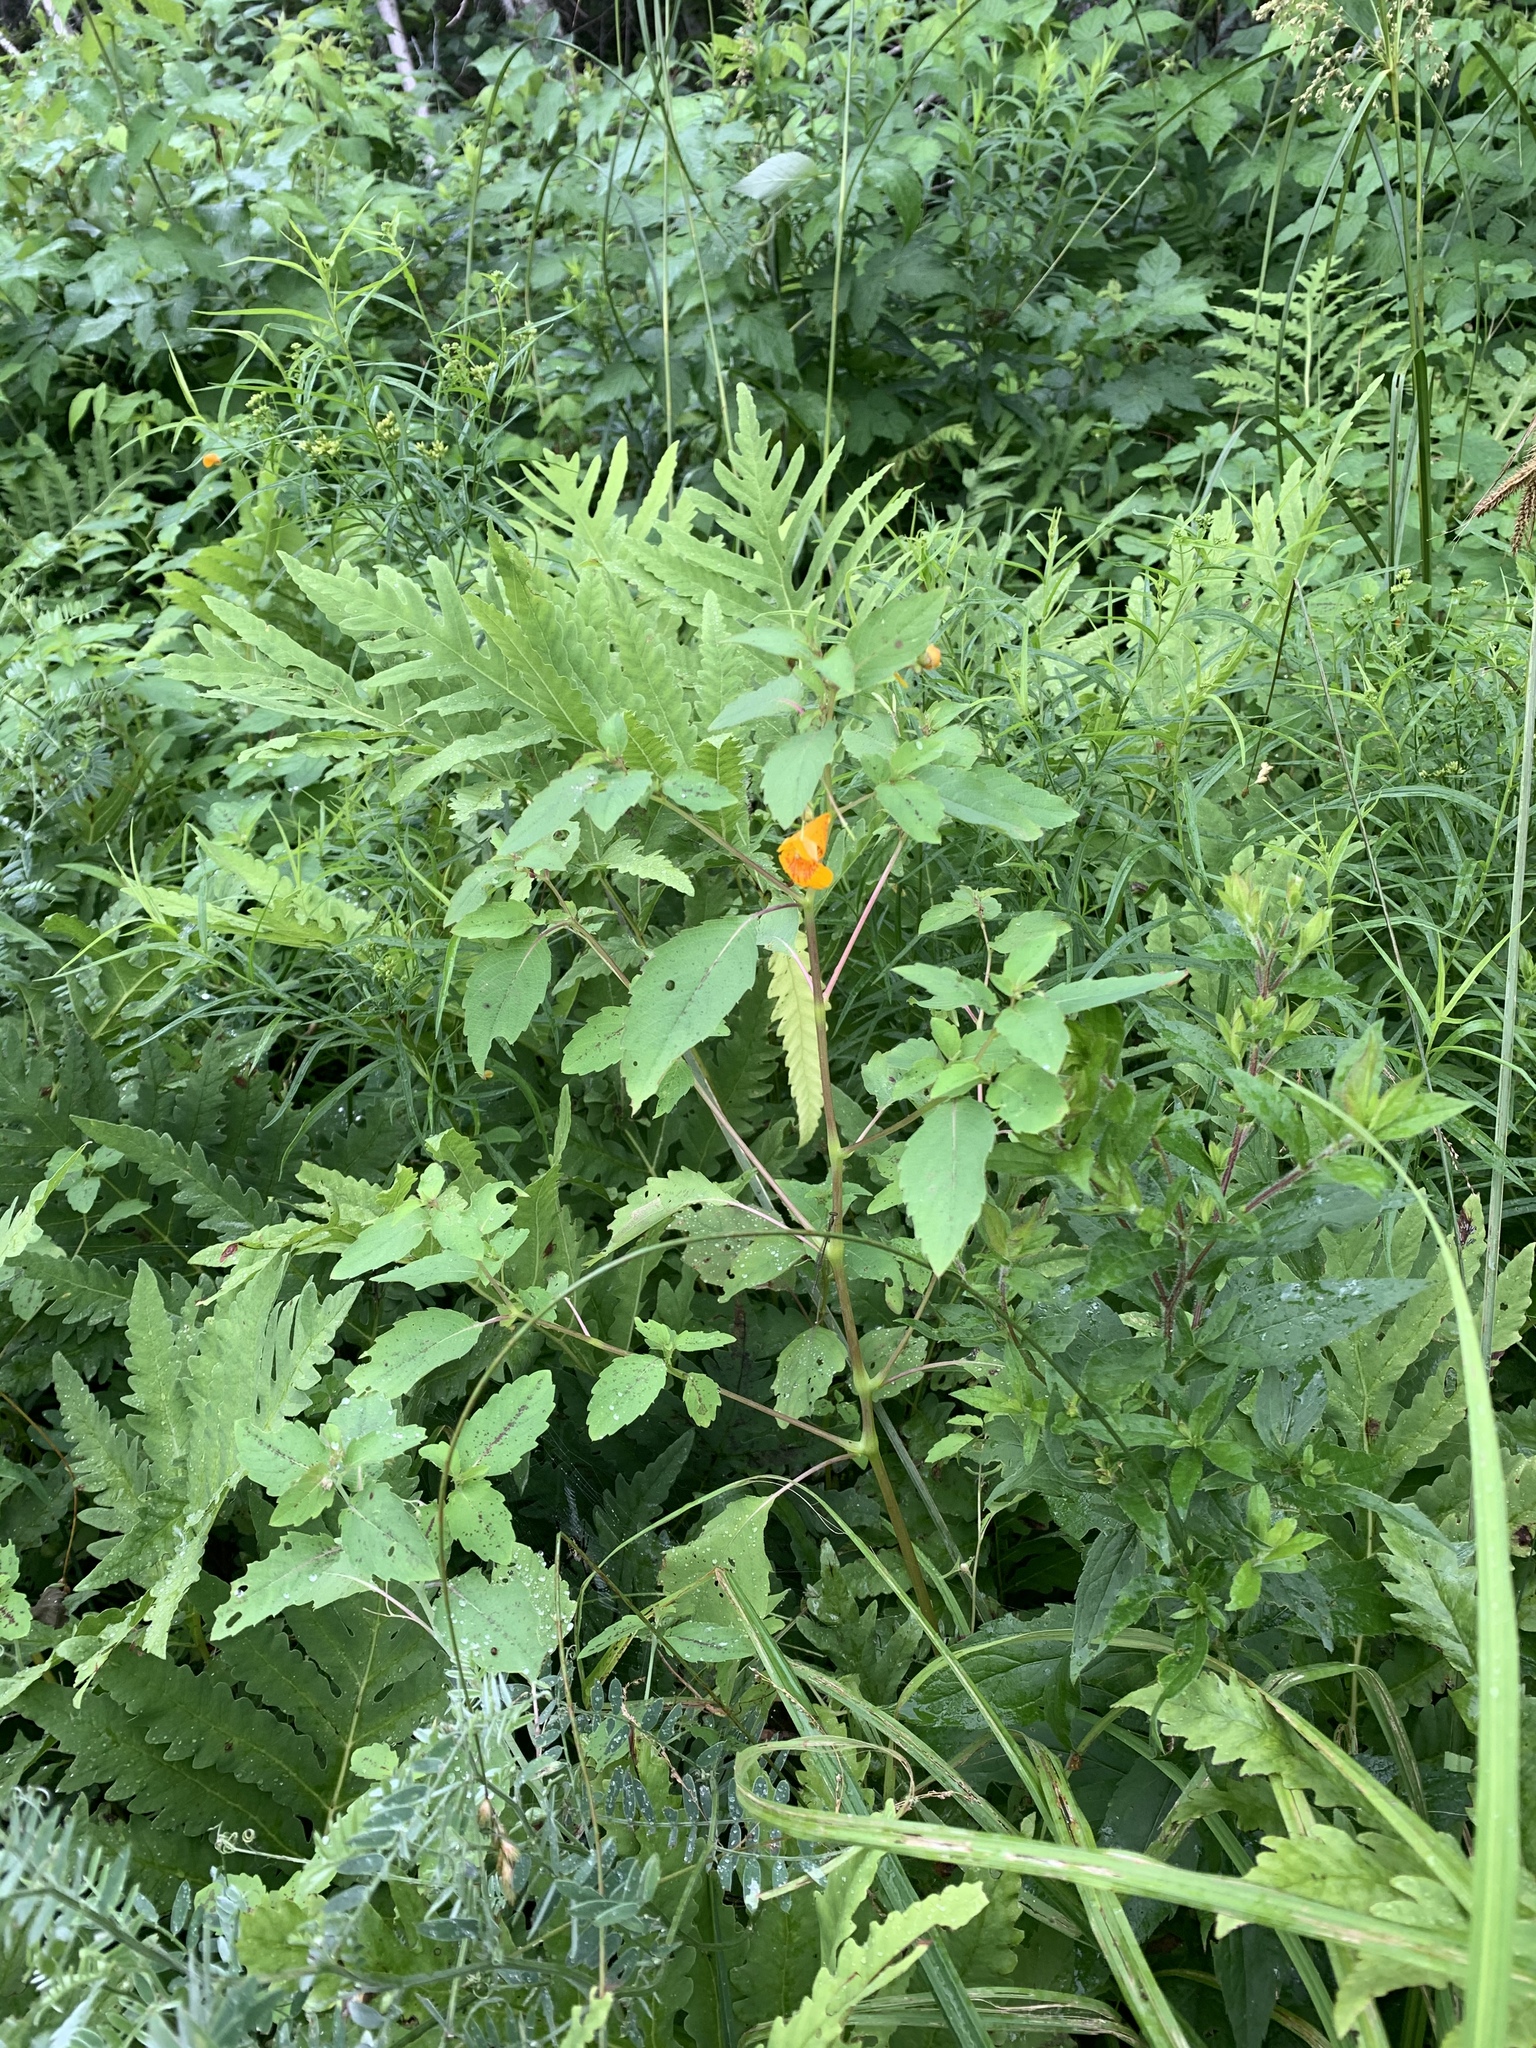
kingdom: Plantae
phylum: Tracheophyta
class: Magnoliopsida
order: Ericales
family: Balsaminaceae
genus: Impatiens
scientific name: Impatiens capensis
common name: Orange balsam
